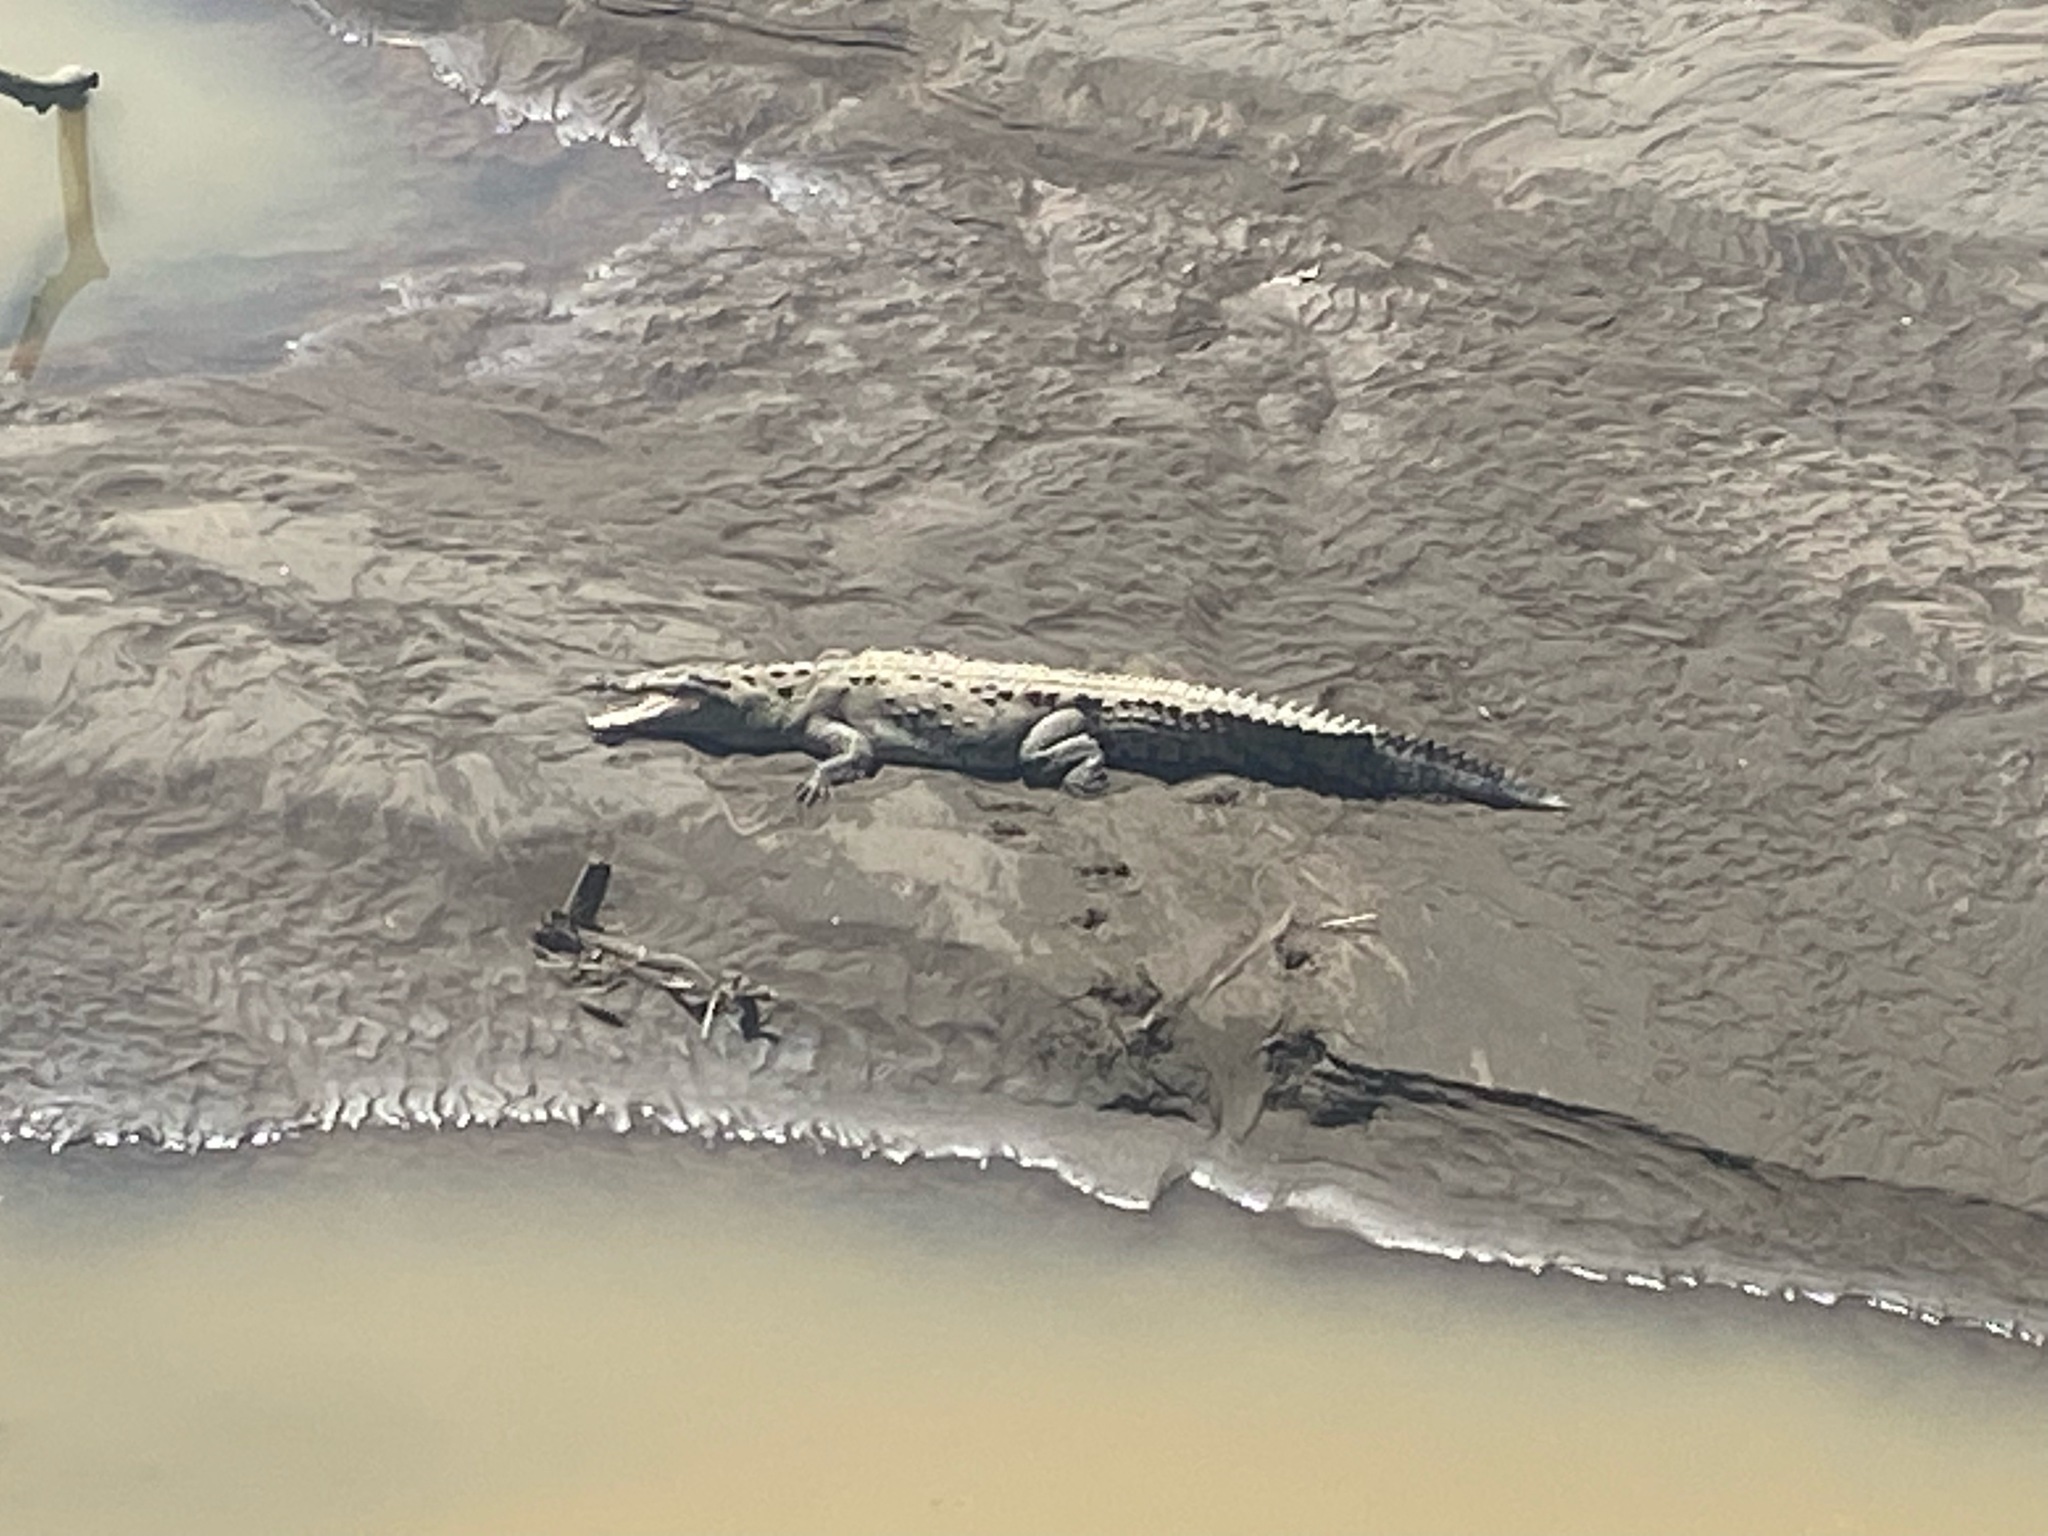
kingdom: Animalia
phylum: Chordata
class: Crocodylia
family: Crocodylidae
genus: Crocodylus
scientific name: Crocodylus acutus
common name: American crocodile
